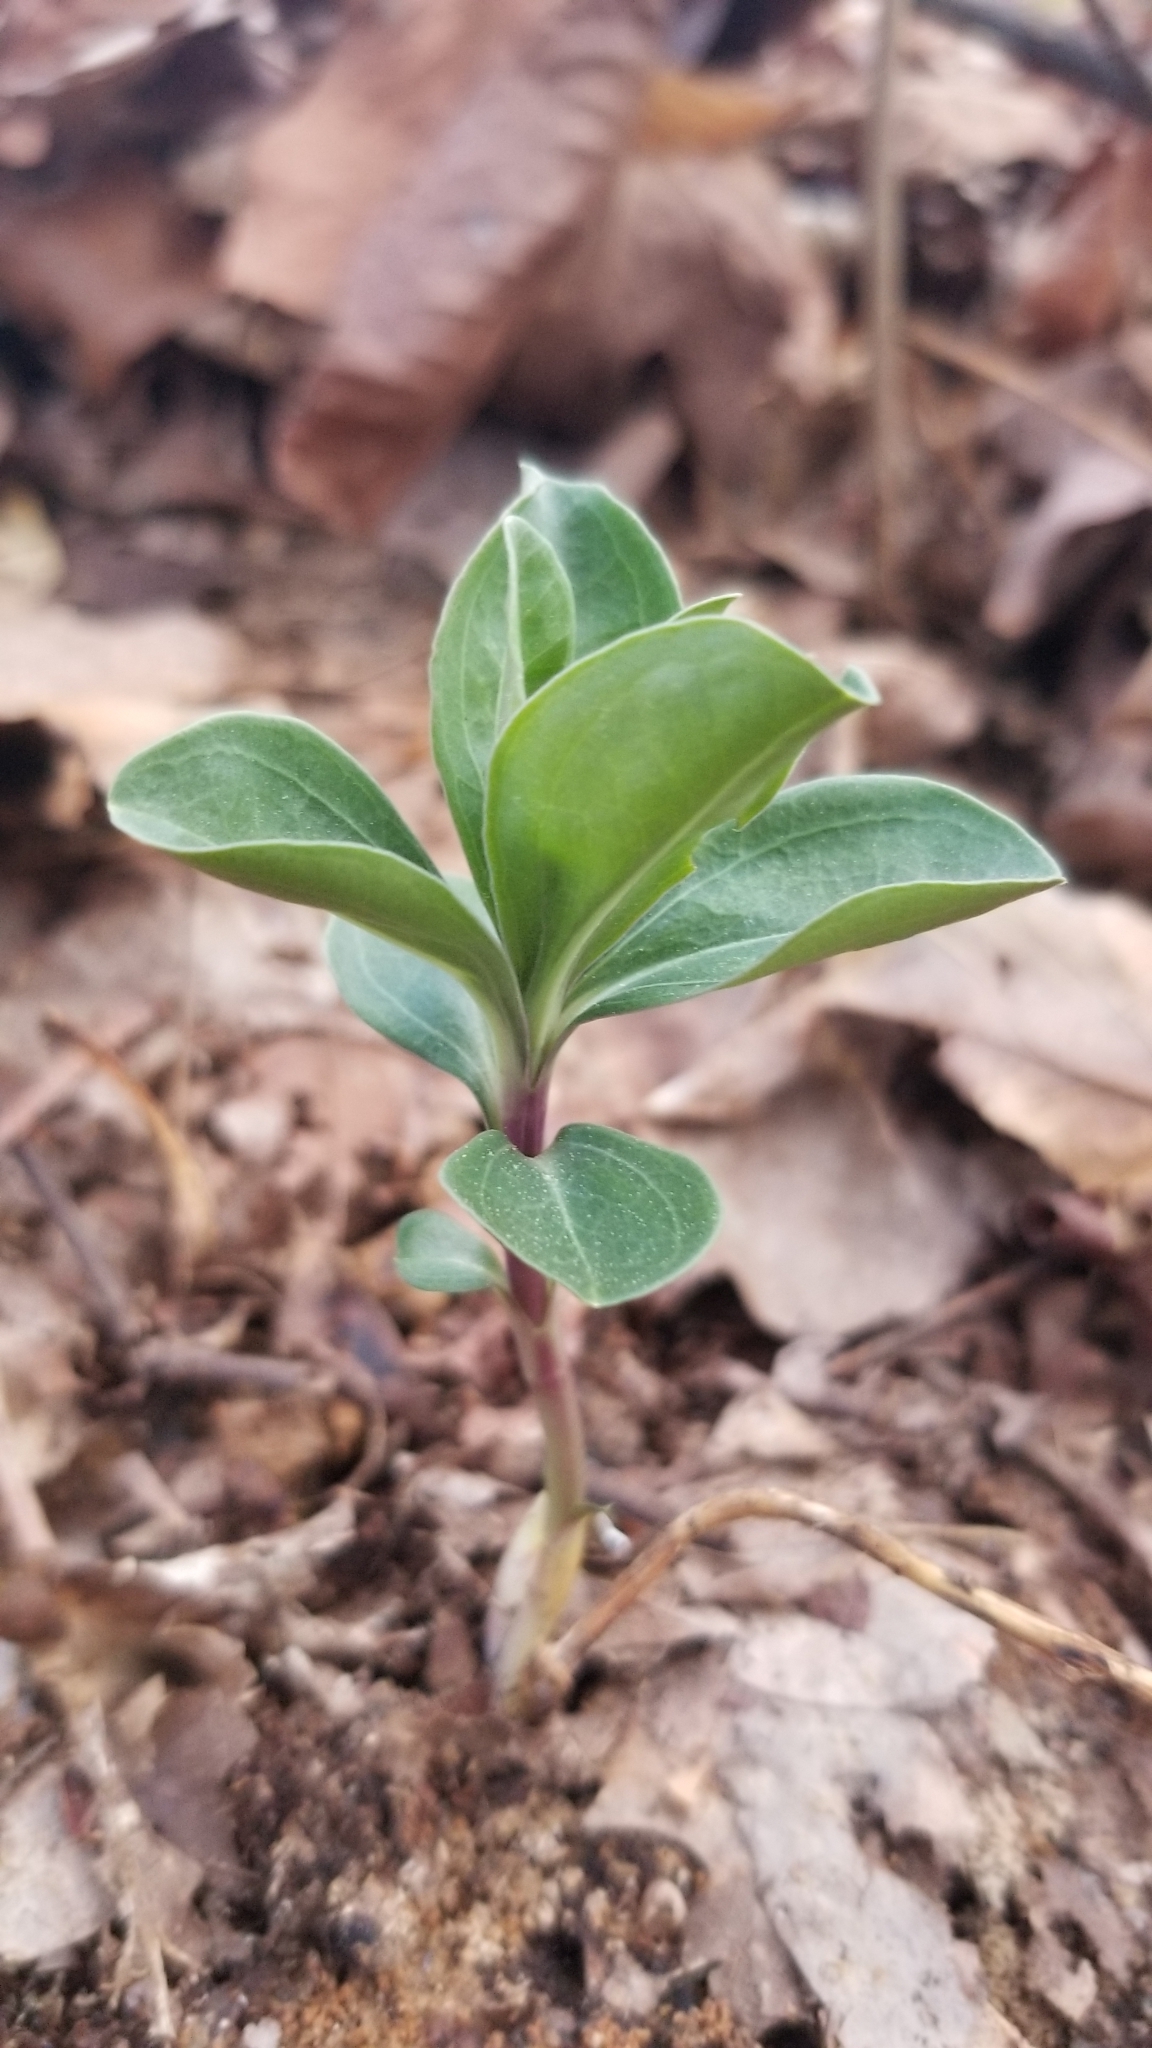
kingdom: Plantae
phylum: Tracheophyta
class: Magnoliopsida
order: Gentianales
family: Gentianaceae
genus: Gentiana
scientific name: Gentiana villosa
